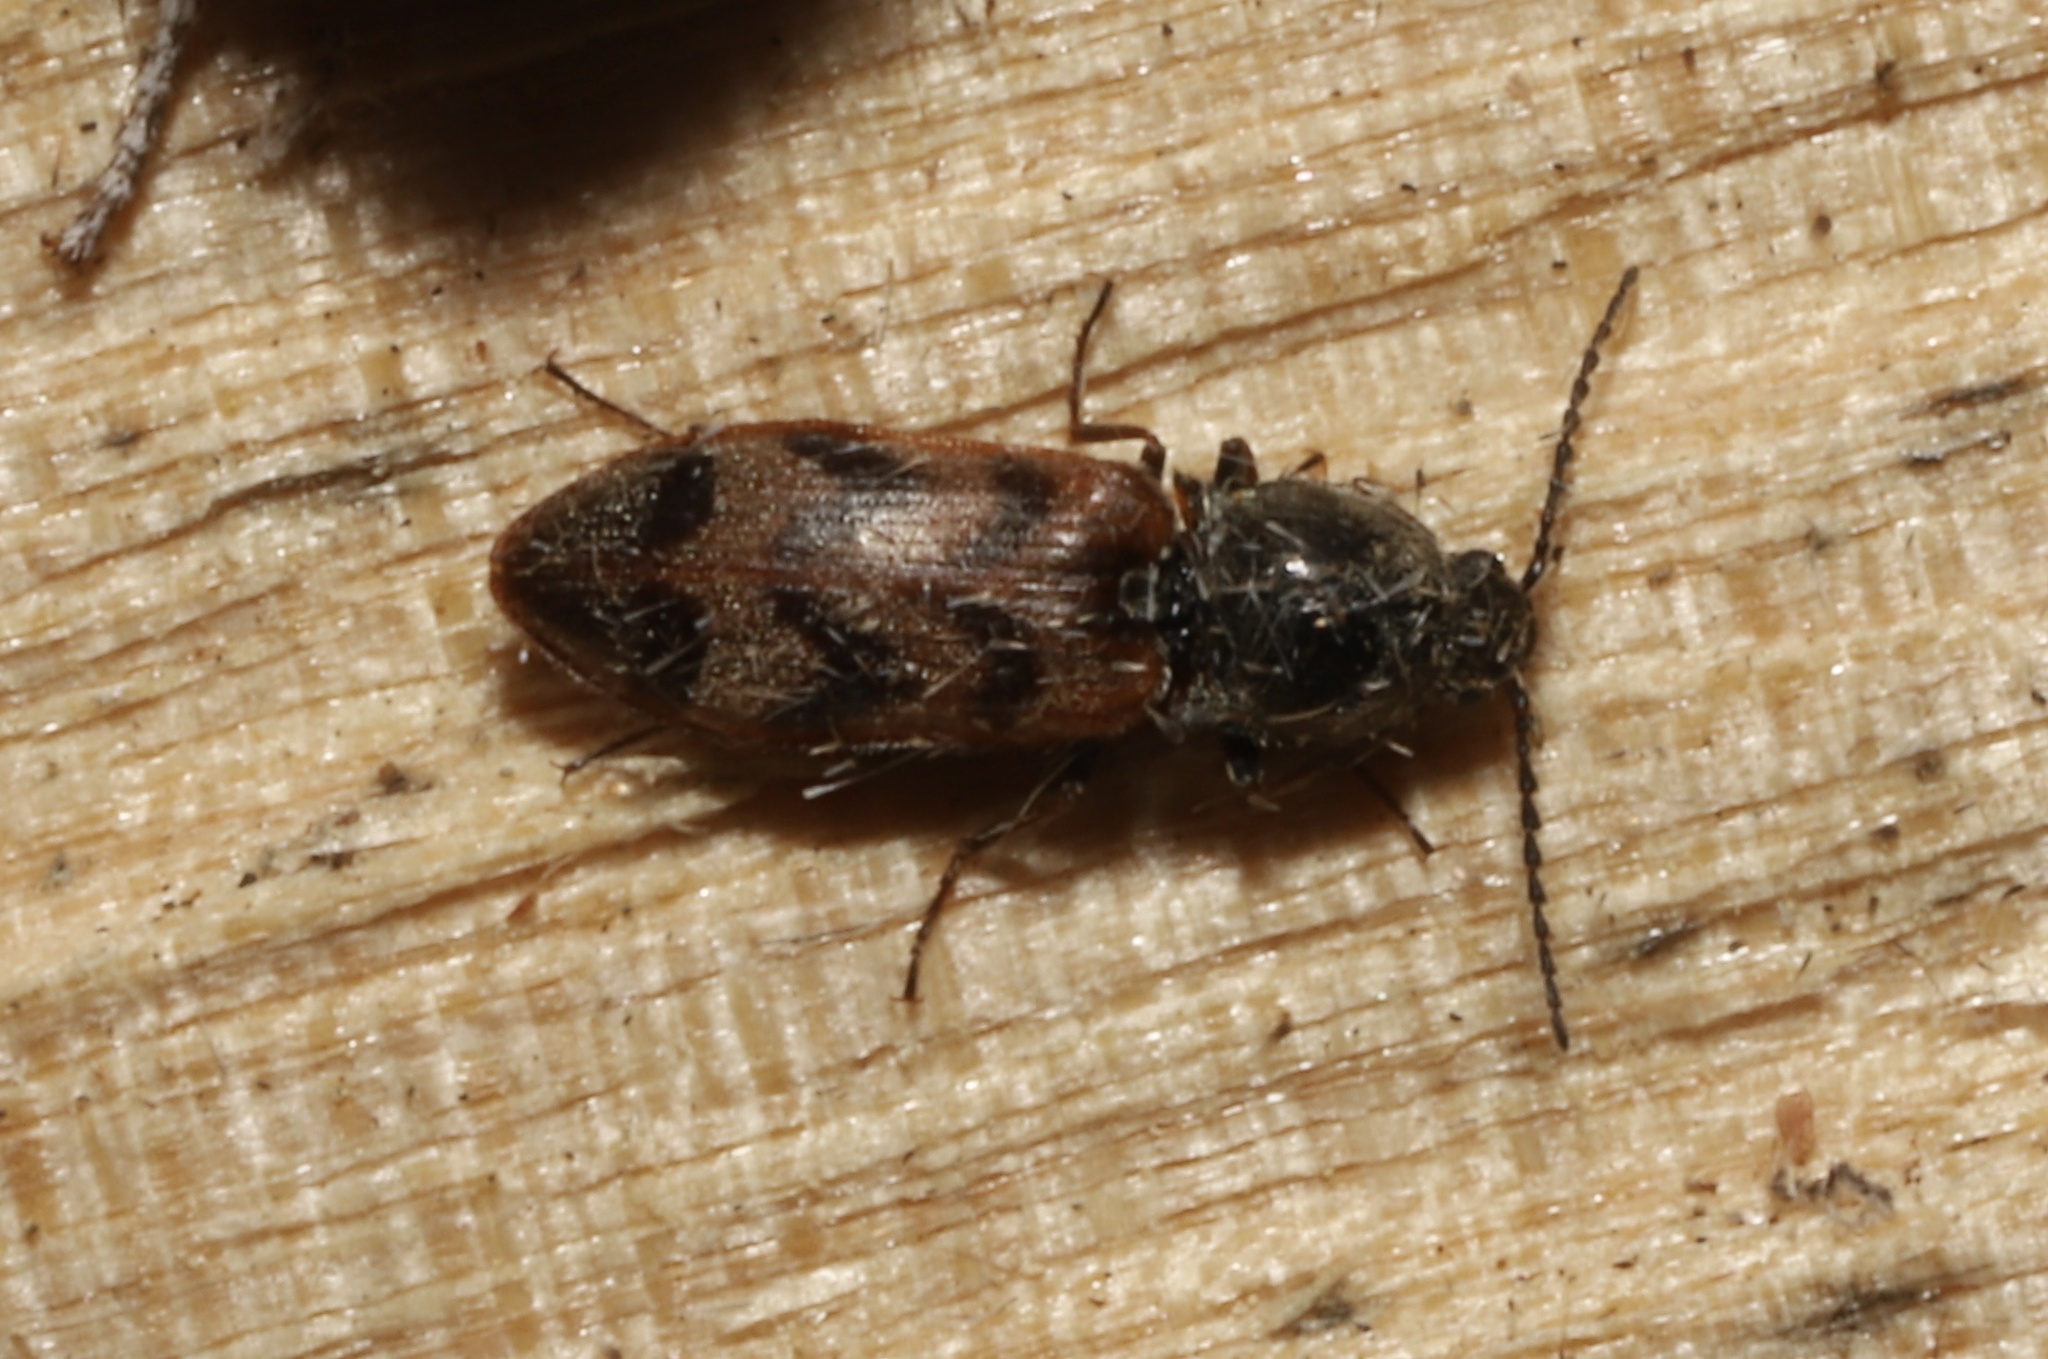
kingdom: Animalia
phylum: Arthropoda
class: Insecta
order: Coleoptera
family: Elateridae
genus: Pseudanostirus
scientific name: Pseudanostirus triundulatus
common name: Three-spotted click beetle
